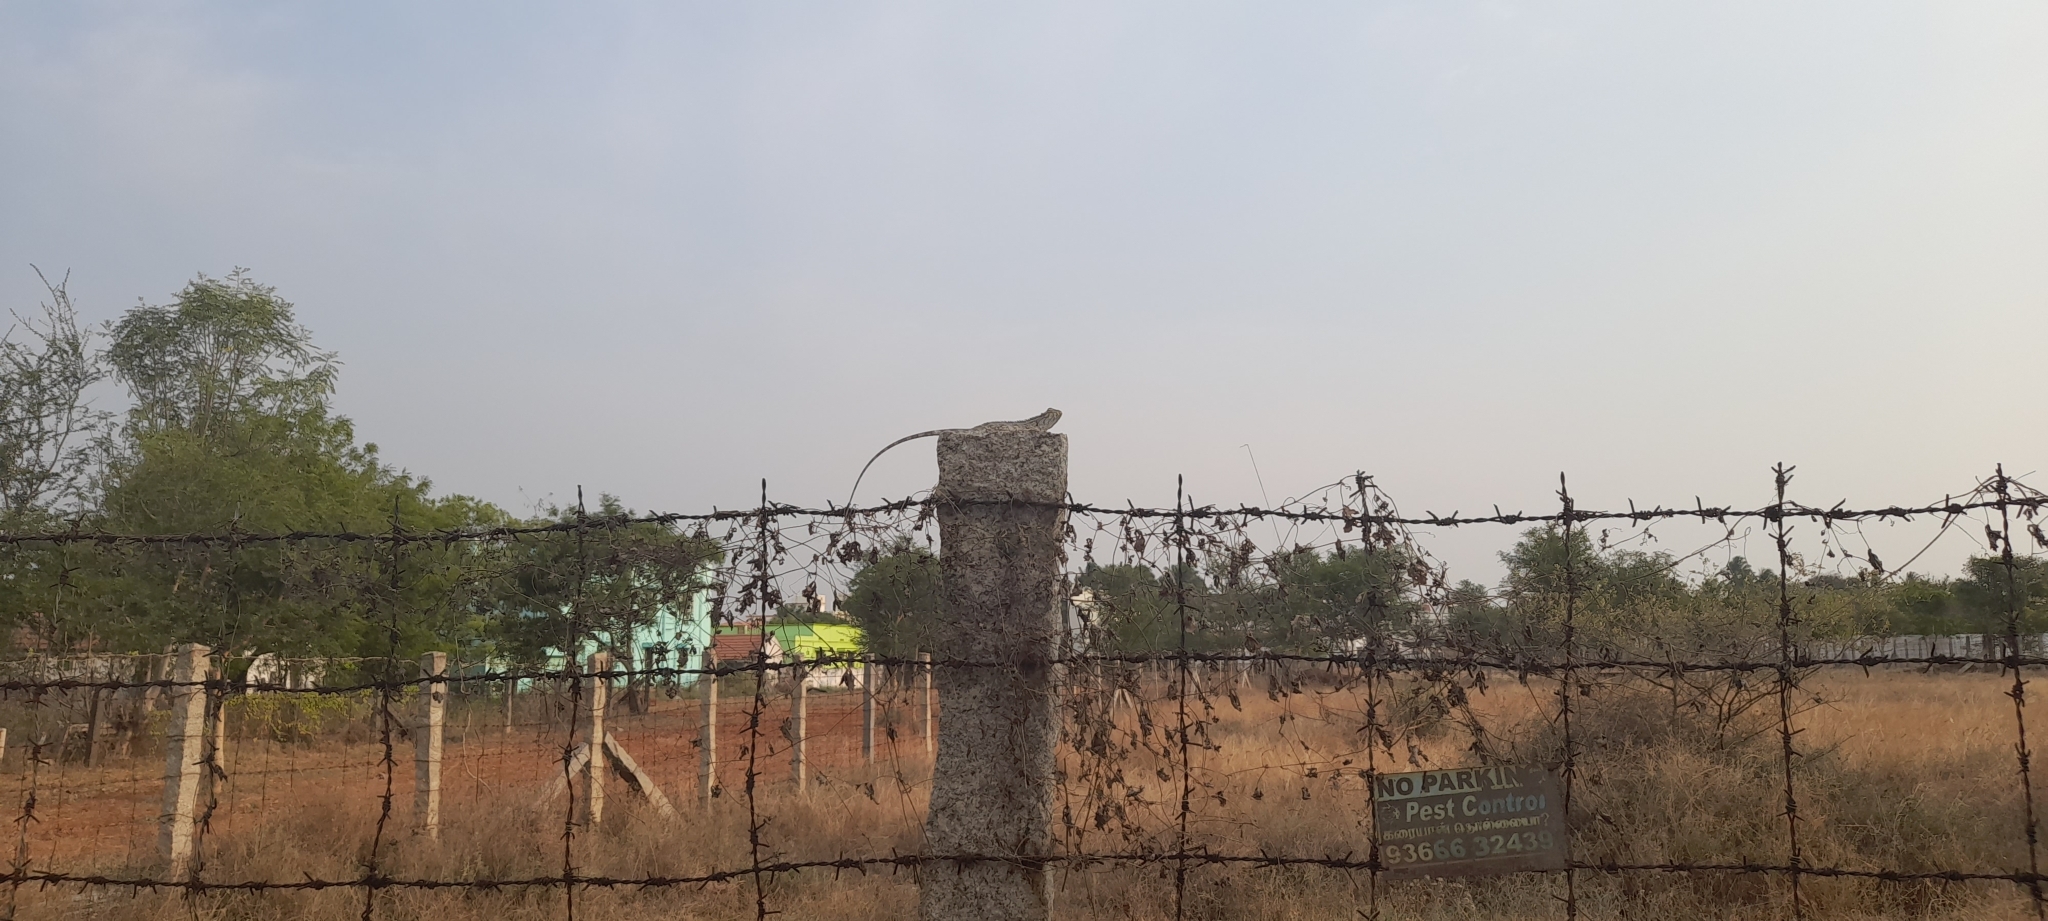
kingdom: Animalia
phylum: Chordata
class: Squamata
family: Agamidae
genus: Calotes
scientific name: Calotes versicolor
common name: Oriental garden lizard
